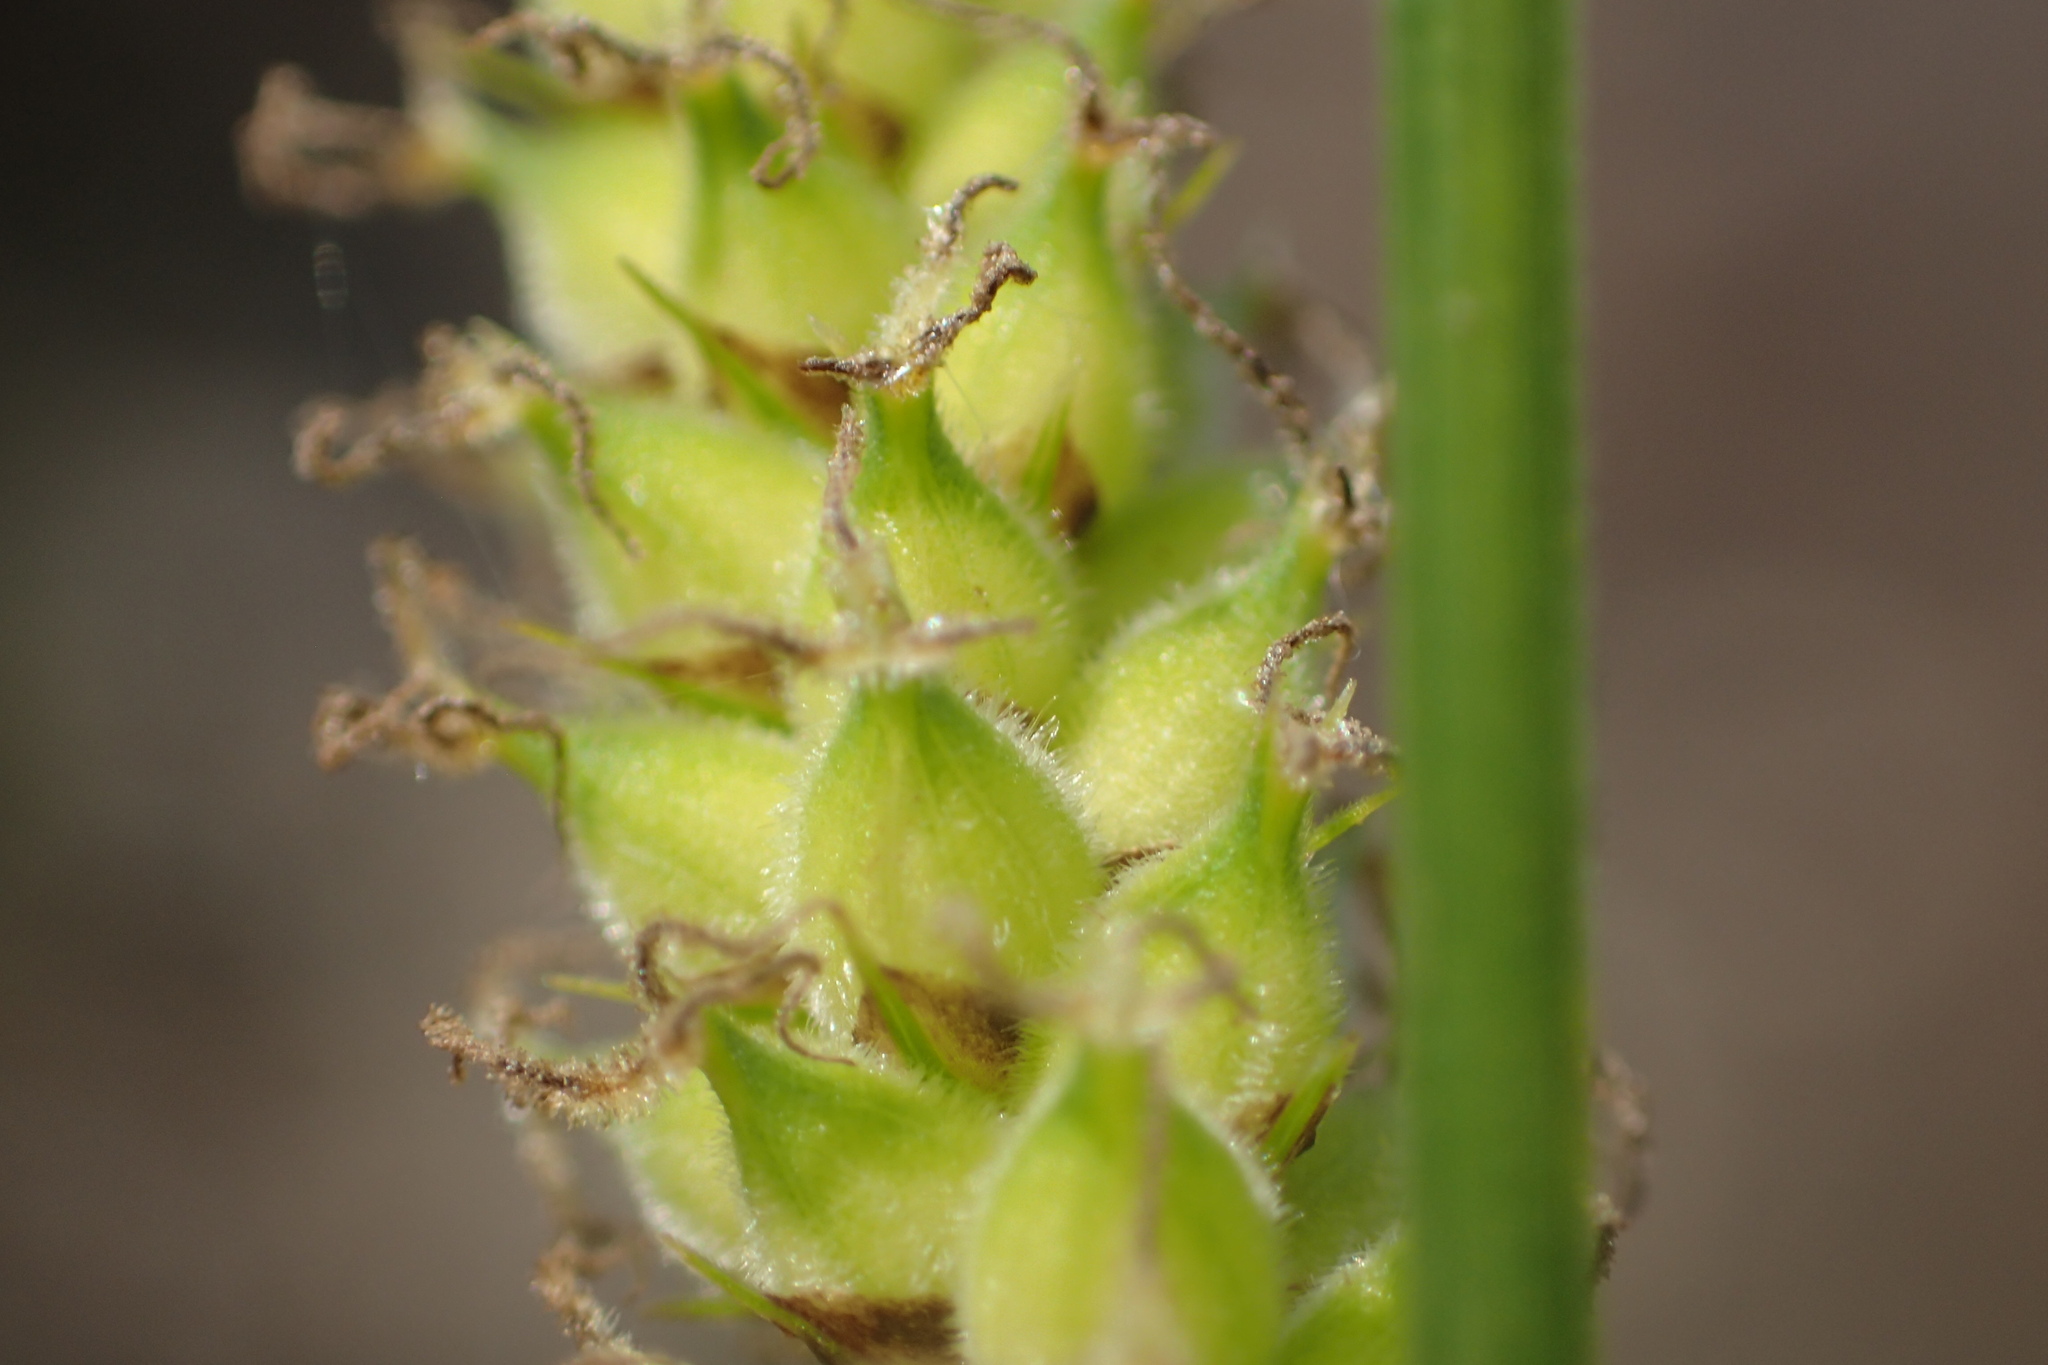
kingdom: Plantae
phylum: Tracheophyta
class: Liliopsida
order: Poales
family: Cyperaceae
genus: Carex
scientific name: Carex pellita
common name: Woolly sedge
